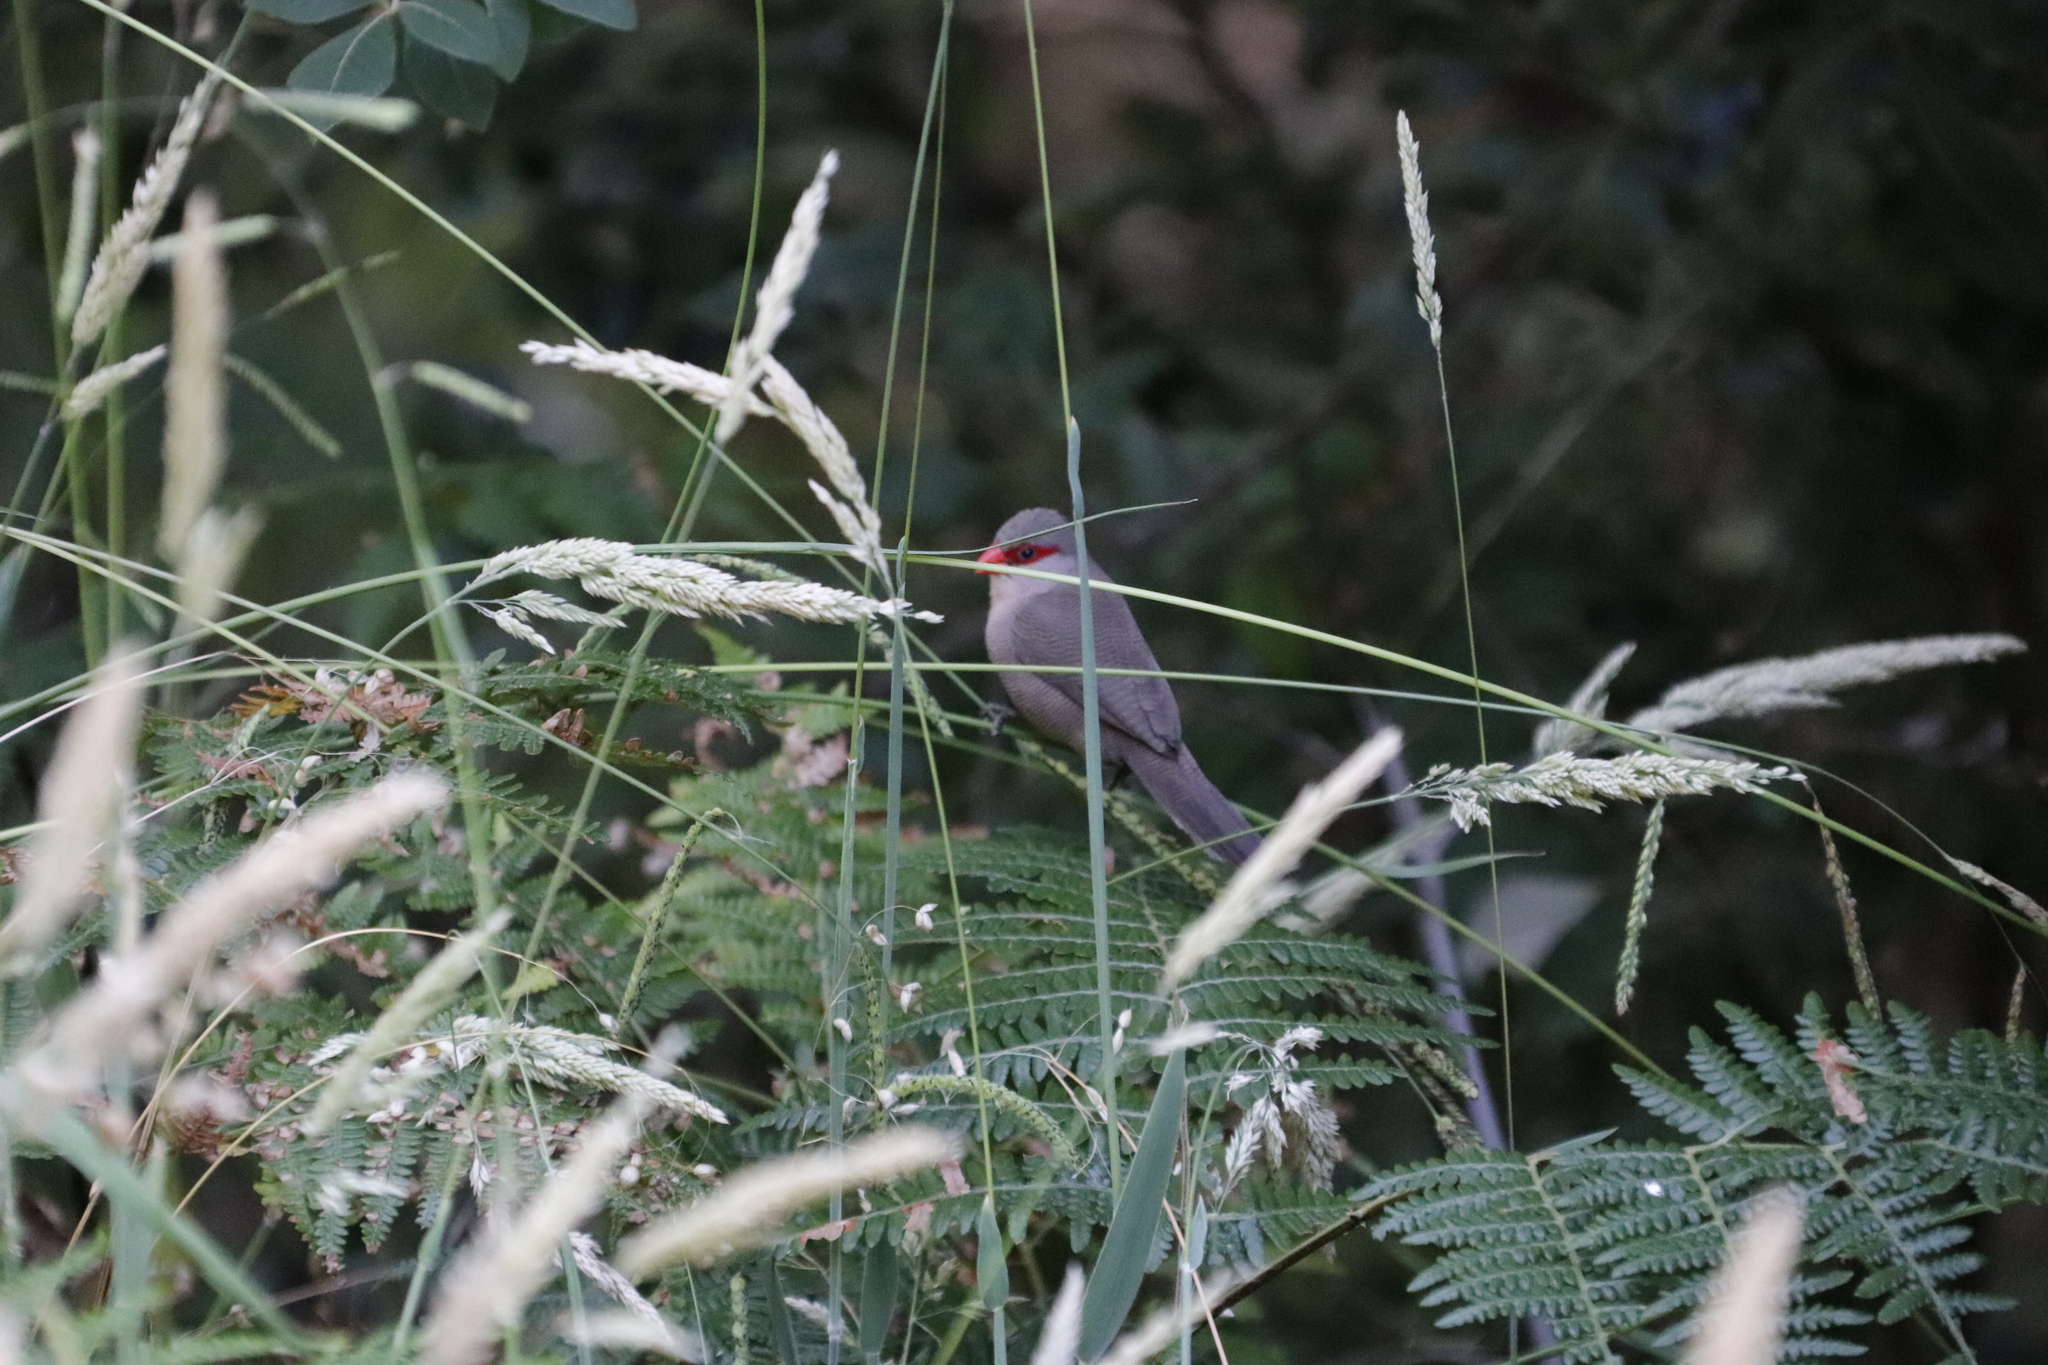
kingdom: Animalia
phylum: Chordata
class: Aves
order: Passeriformes
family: Estrildidae
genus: Estrilda
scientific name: Estrilda astrild
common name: Common waxbill
